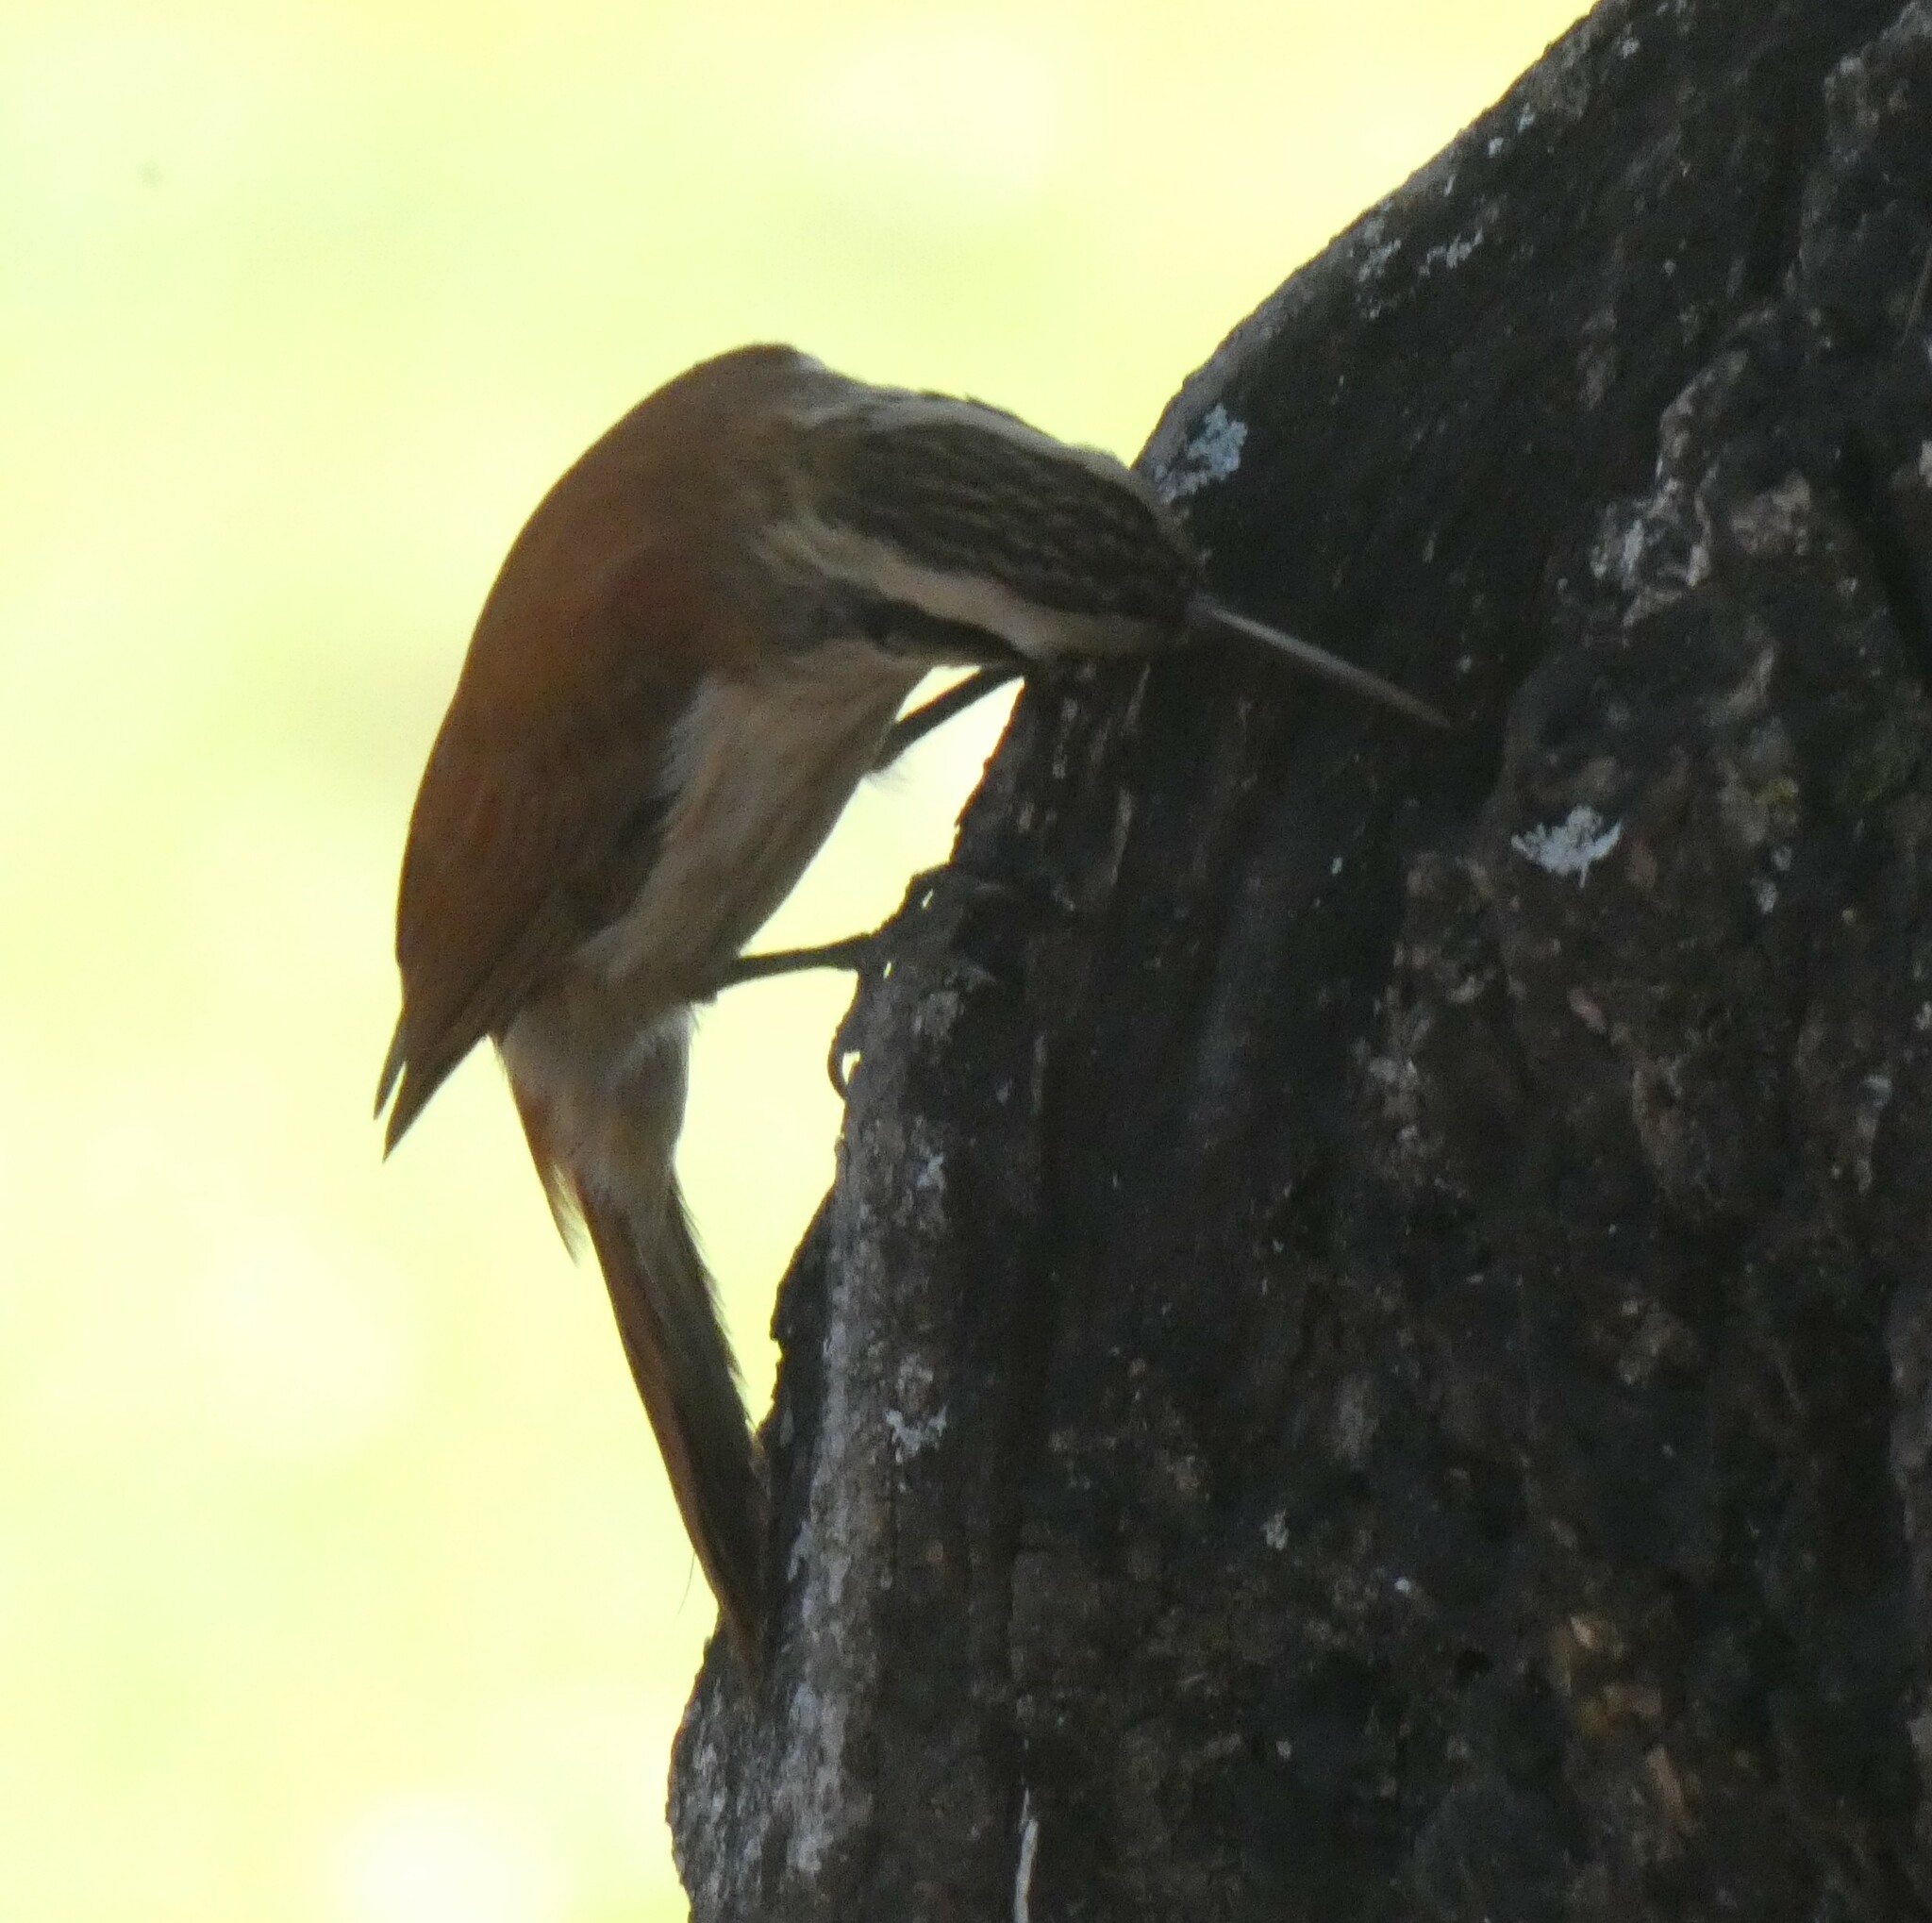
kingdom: Animalia
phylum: Chordata
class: Aves
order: Passeriformes
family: Furnariidae
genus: Lepidocolaptes
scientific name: Lepidocolaptes angustirostris
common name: Narrow-billed woodcreeper
